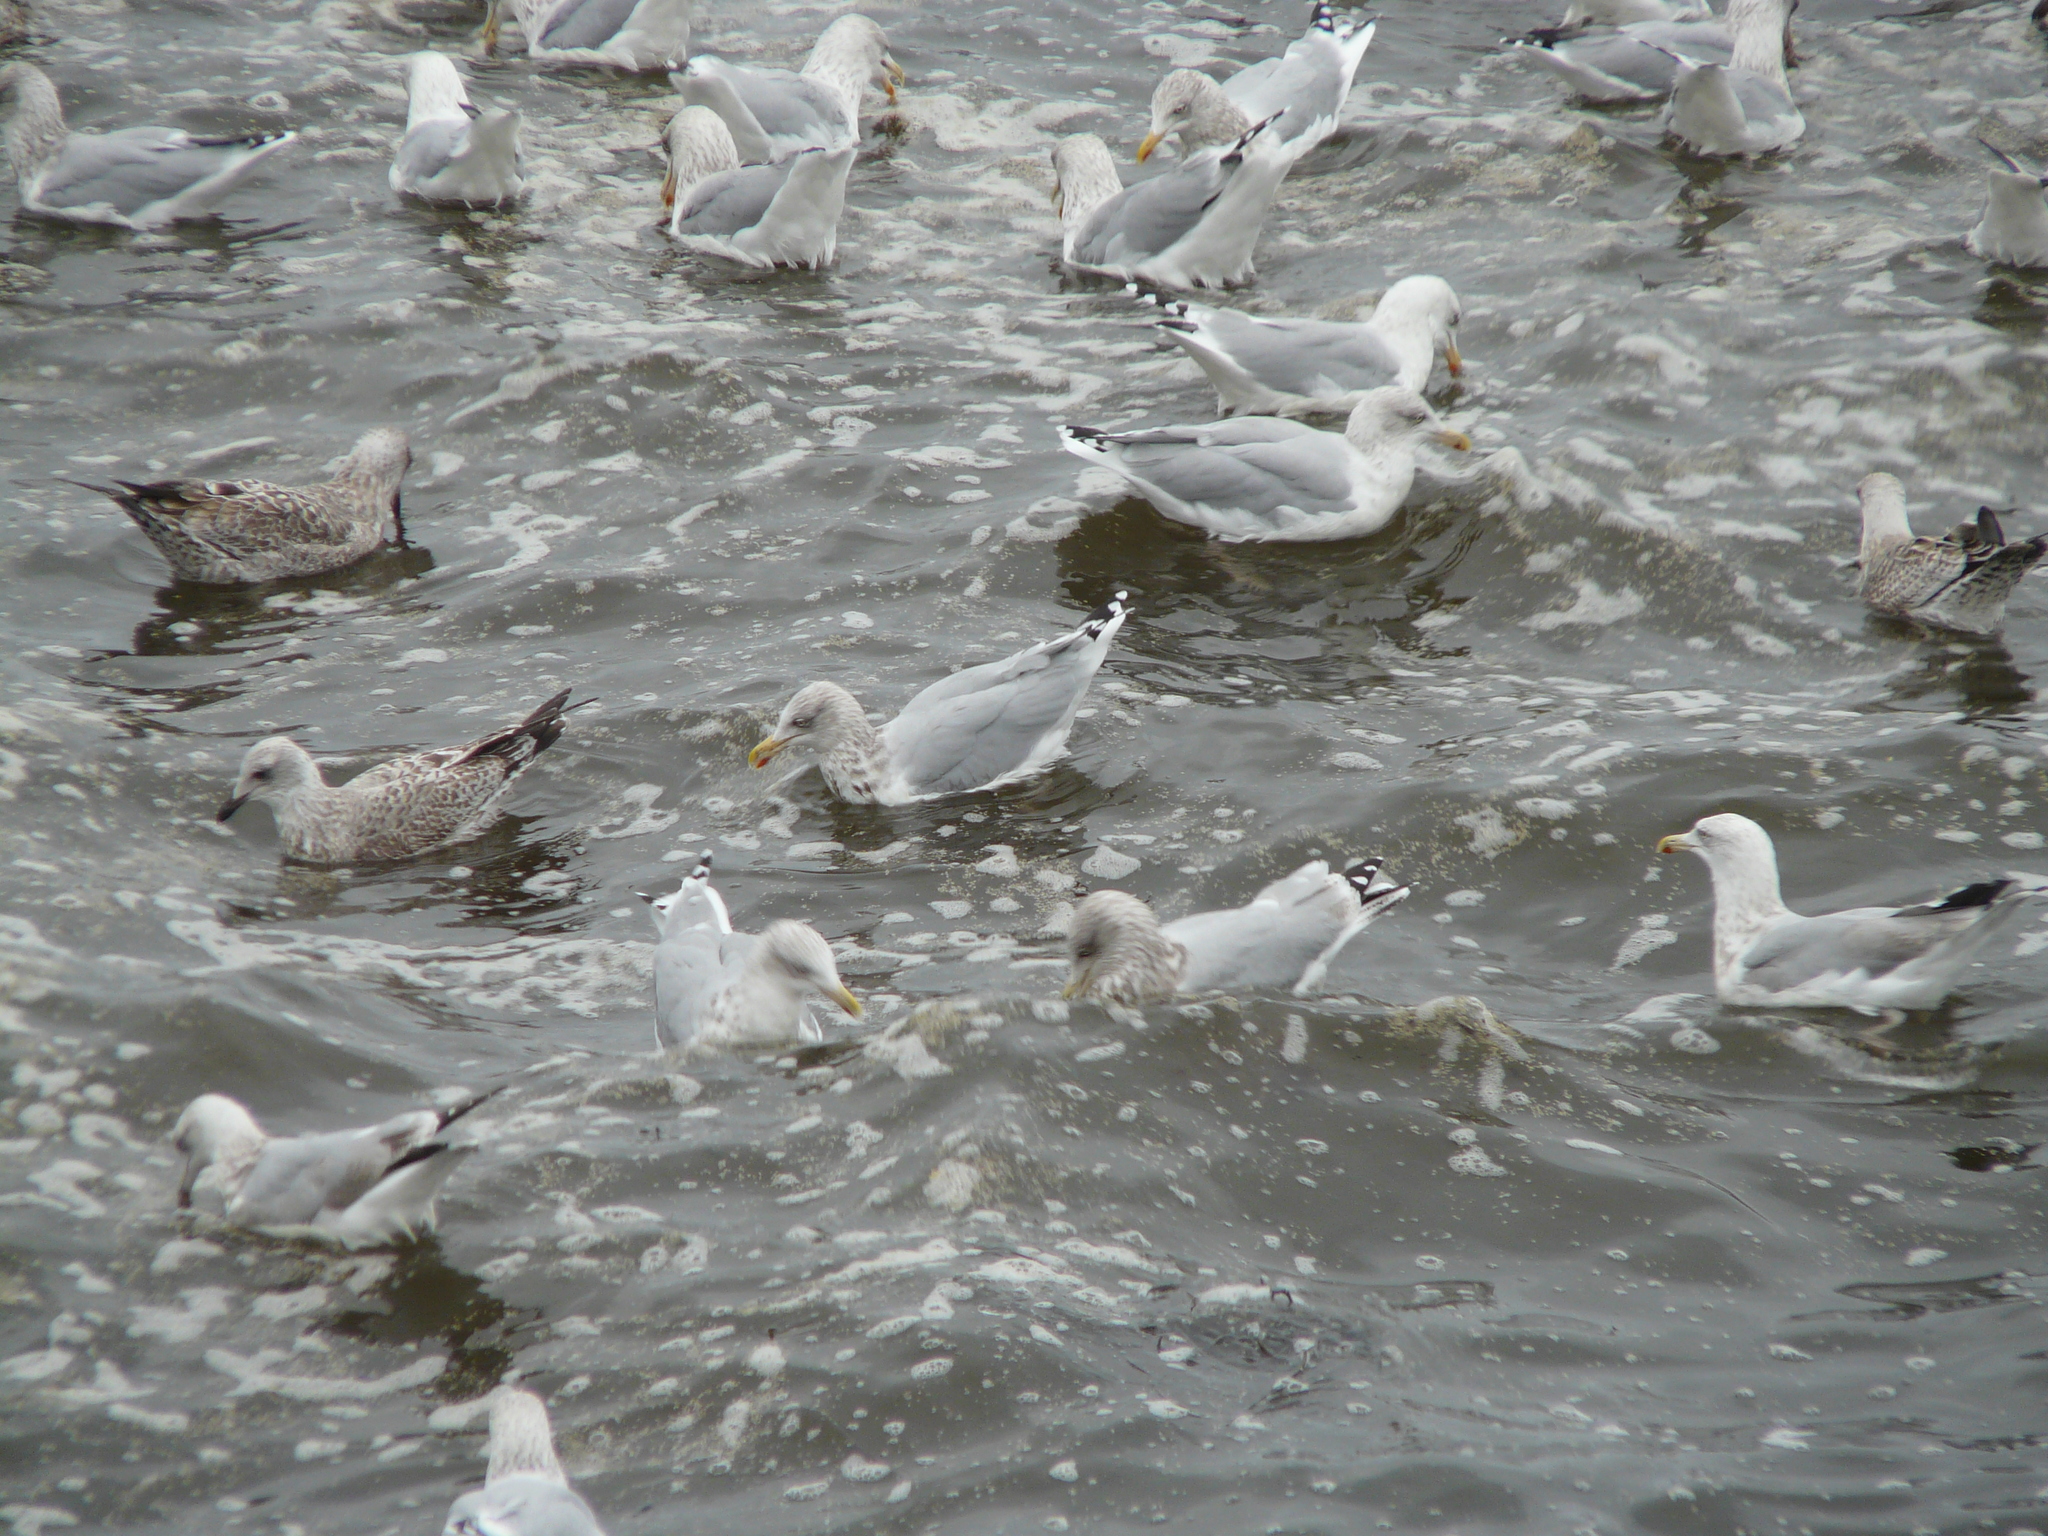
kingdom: Animalia
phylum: Chordata
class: Aves
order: Charadriiformes
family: Laridae
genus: Larus
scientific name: Larus argentatus
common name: Herring gull
